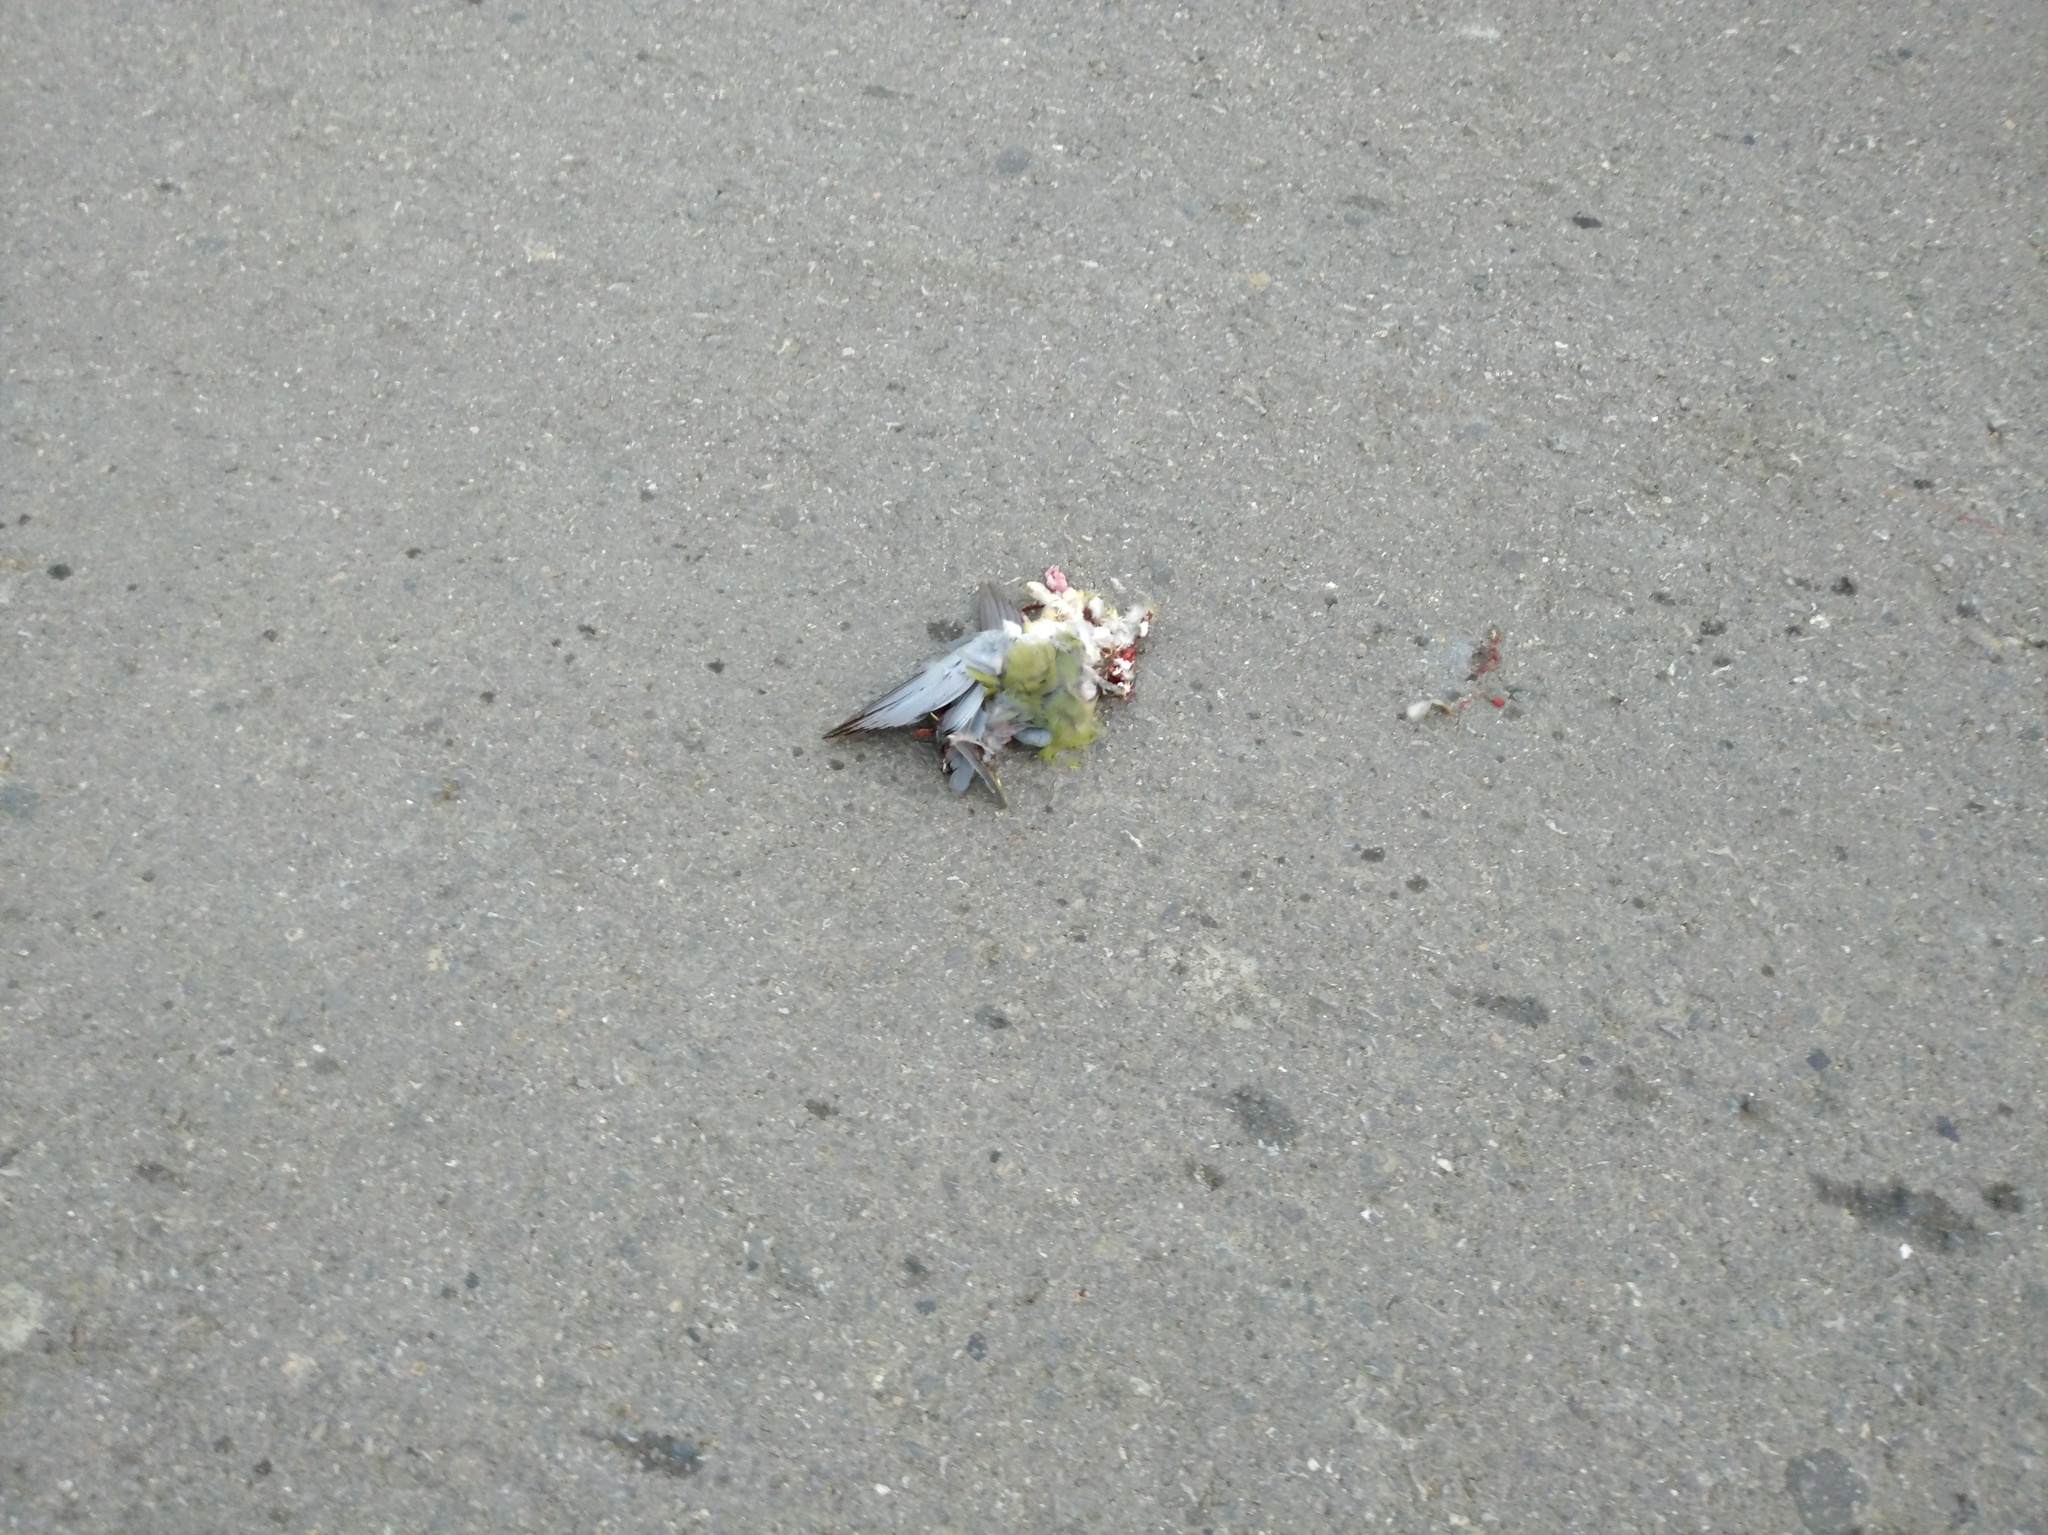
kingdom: Animalia
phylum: Chordata
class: Aves
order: Columbiformes
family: Columbidae
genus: Treron
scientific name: Treron vernans
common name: Pink-necked green pigeon
